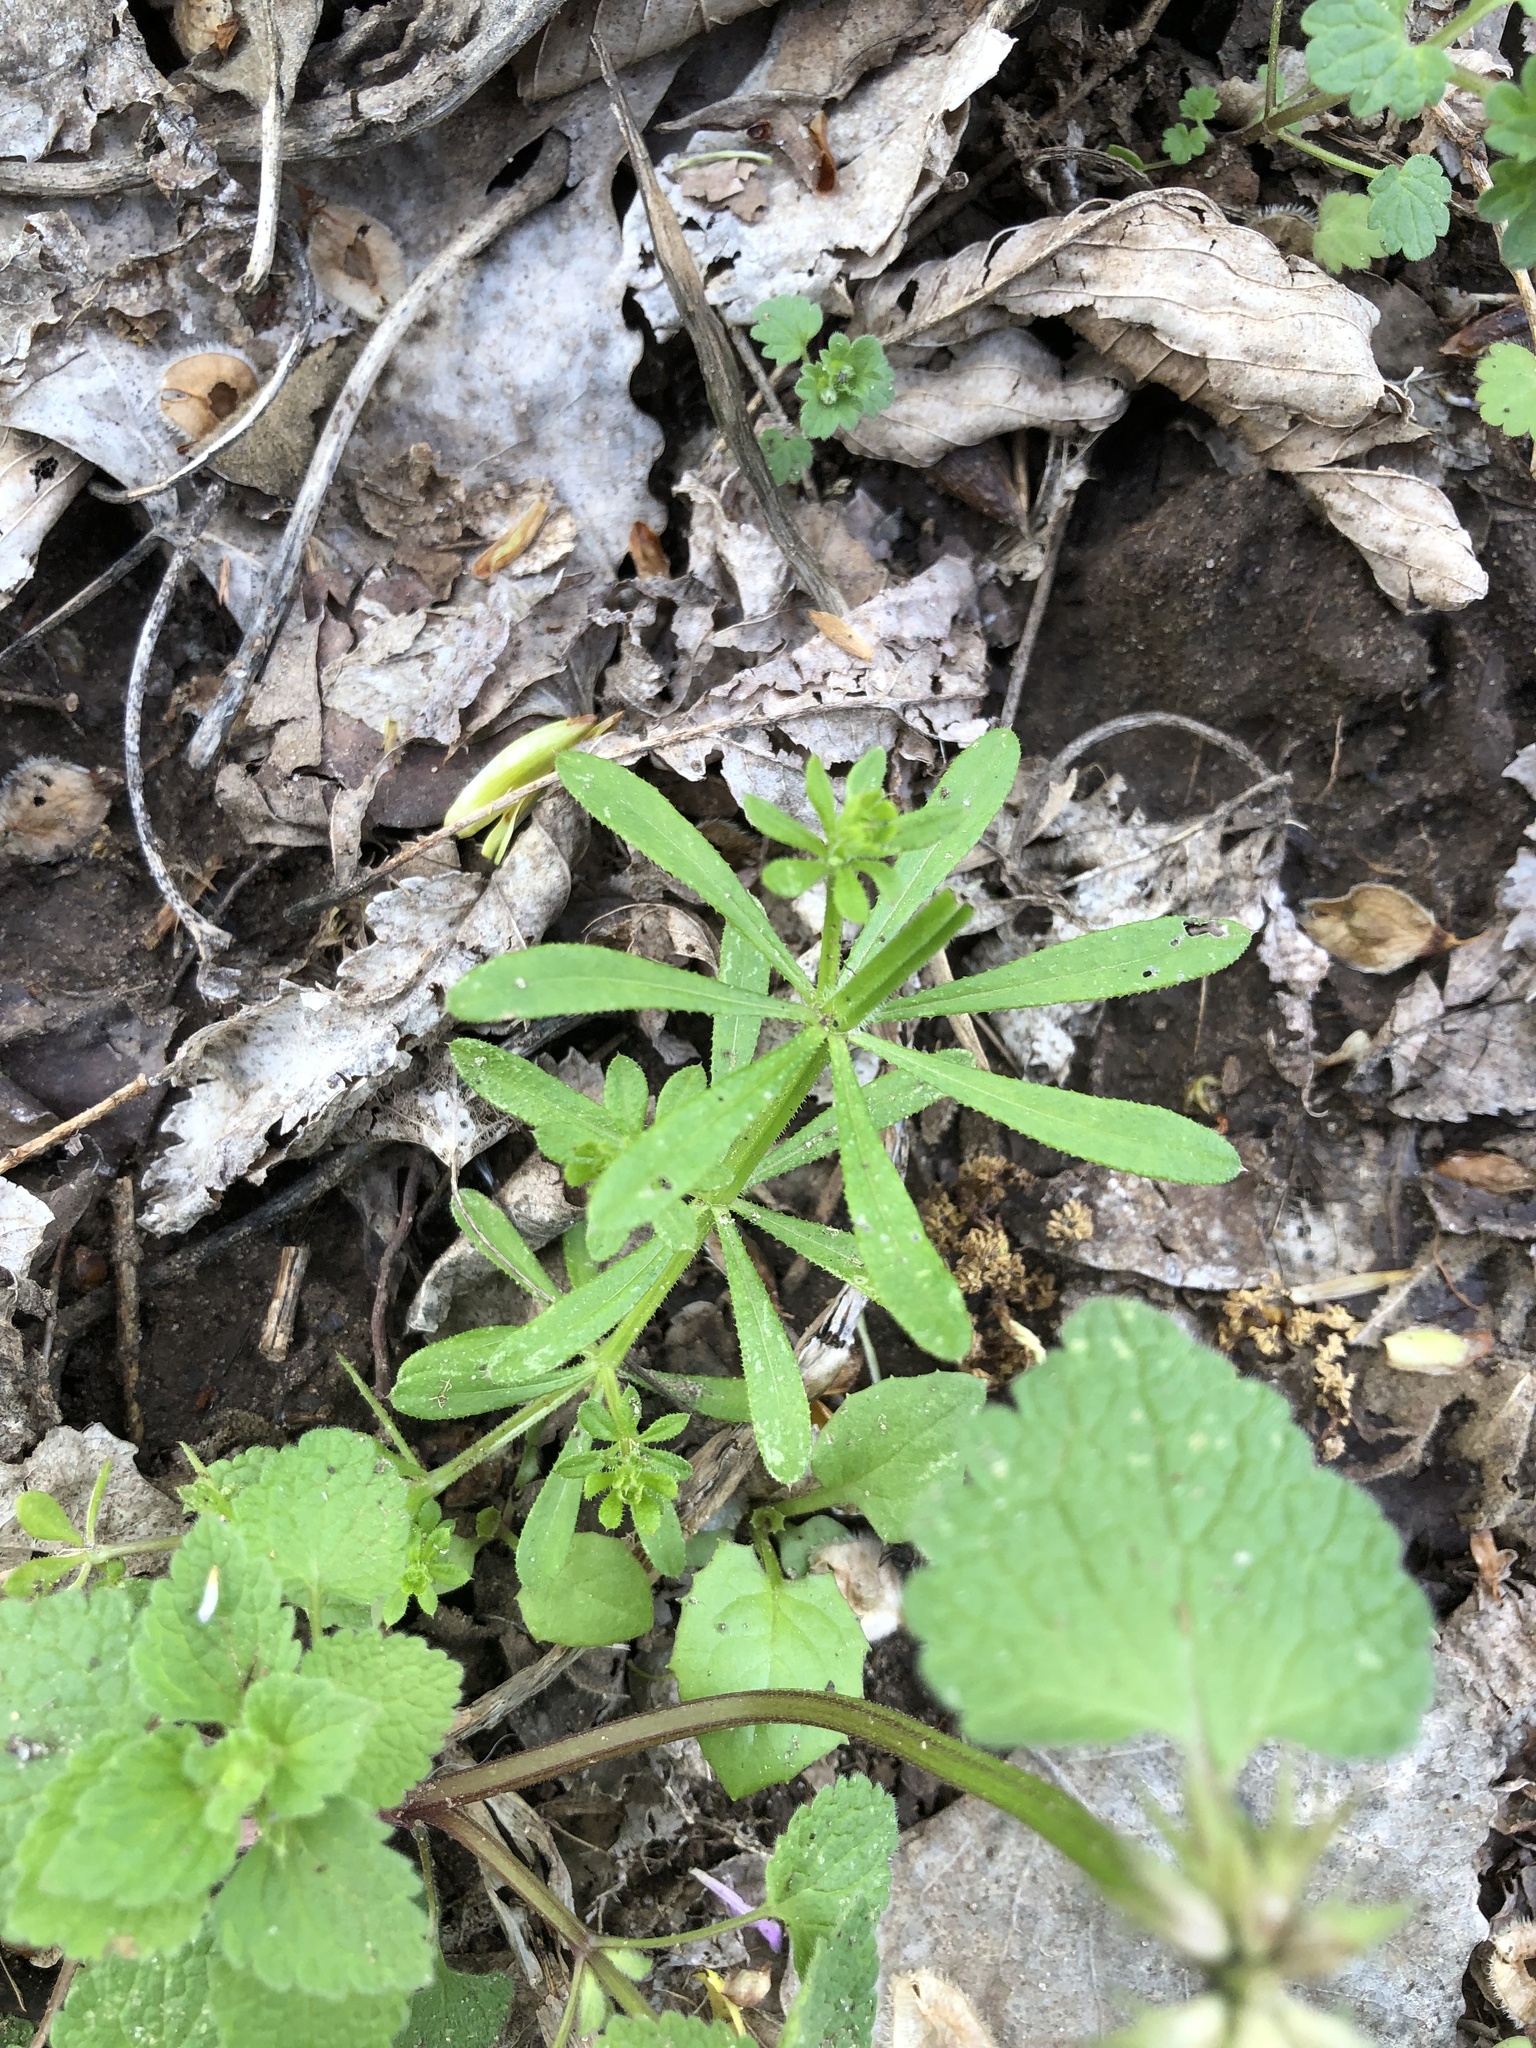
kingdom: Plantae
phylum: Tracheophyta
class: Magnoliopsida
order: Gentianales
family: Rubiaceae
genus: Galium
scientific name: Galium aparine
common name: Cleavers
